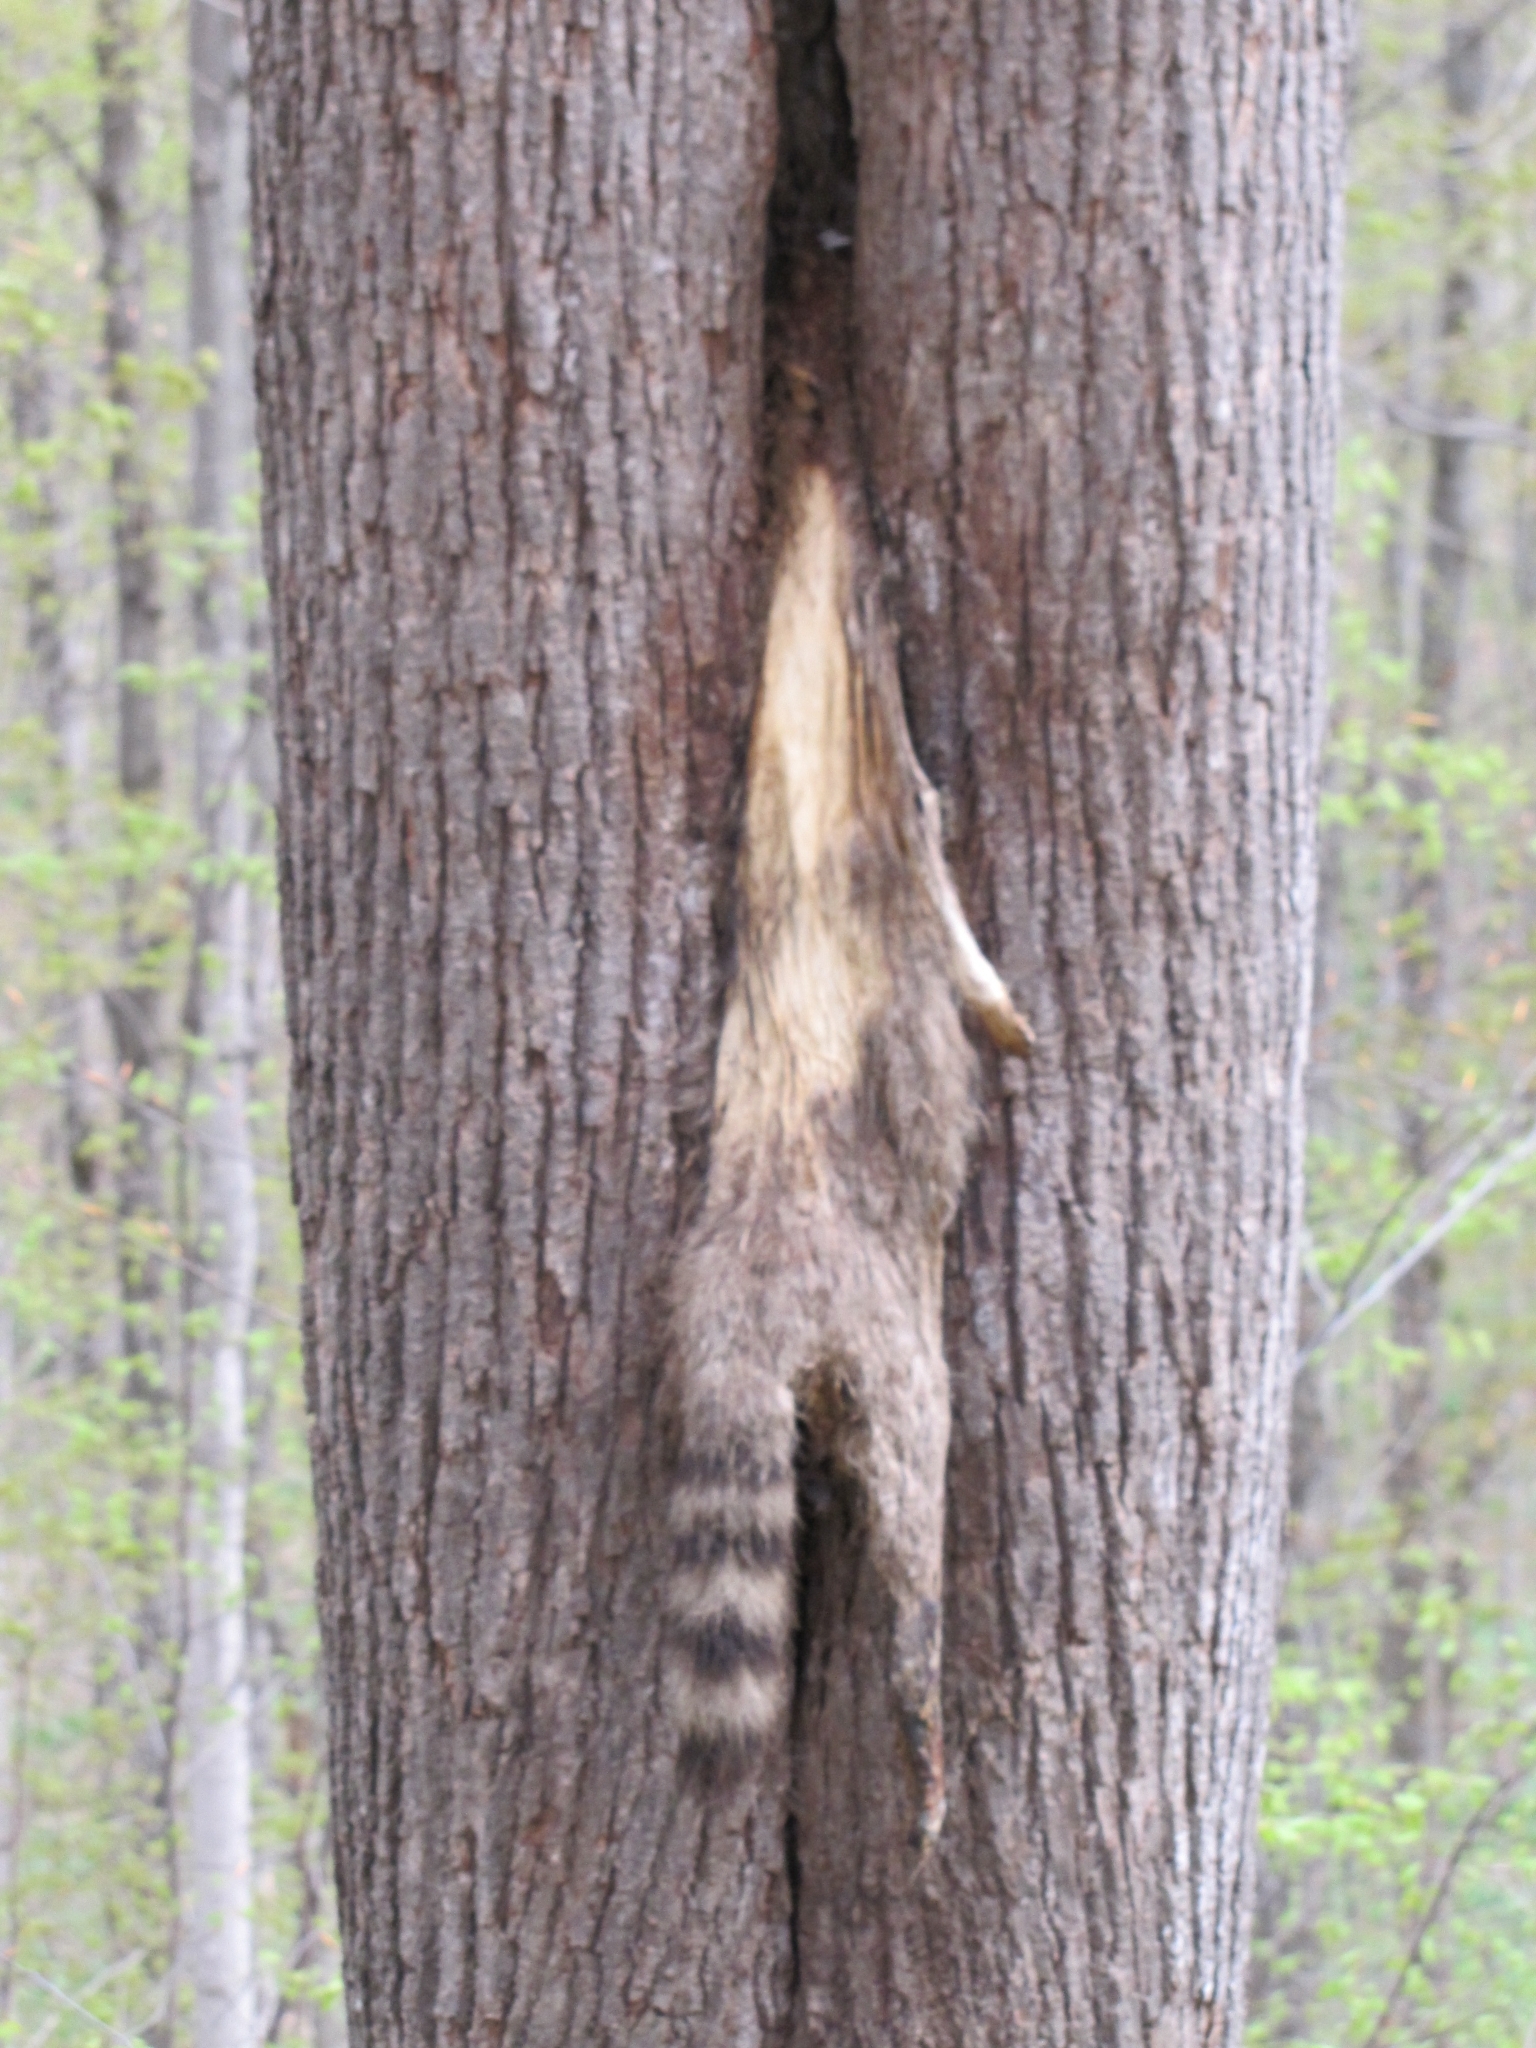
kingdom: Animalia
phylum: Chordata
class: Mammalia
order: Carnivora
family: Procyonidae
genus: Procyon
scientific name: Procyon lotor
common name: Raccoon
